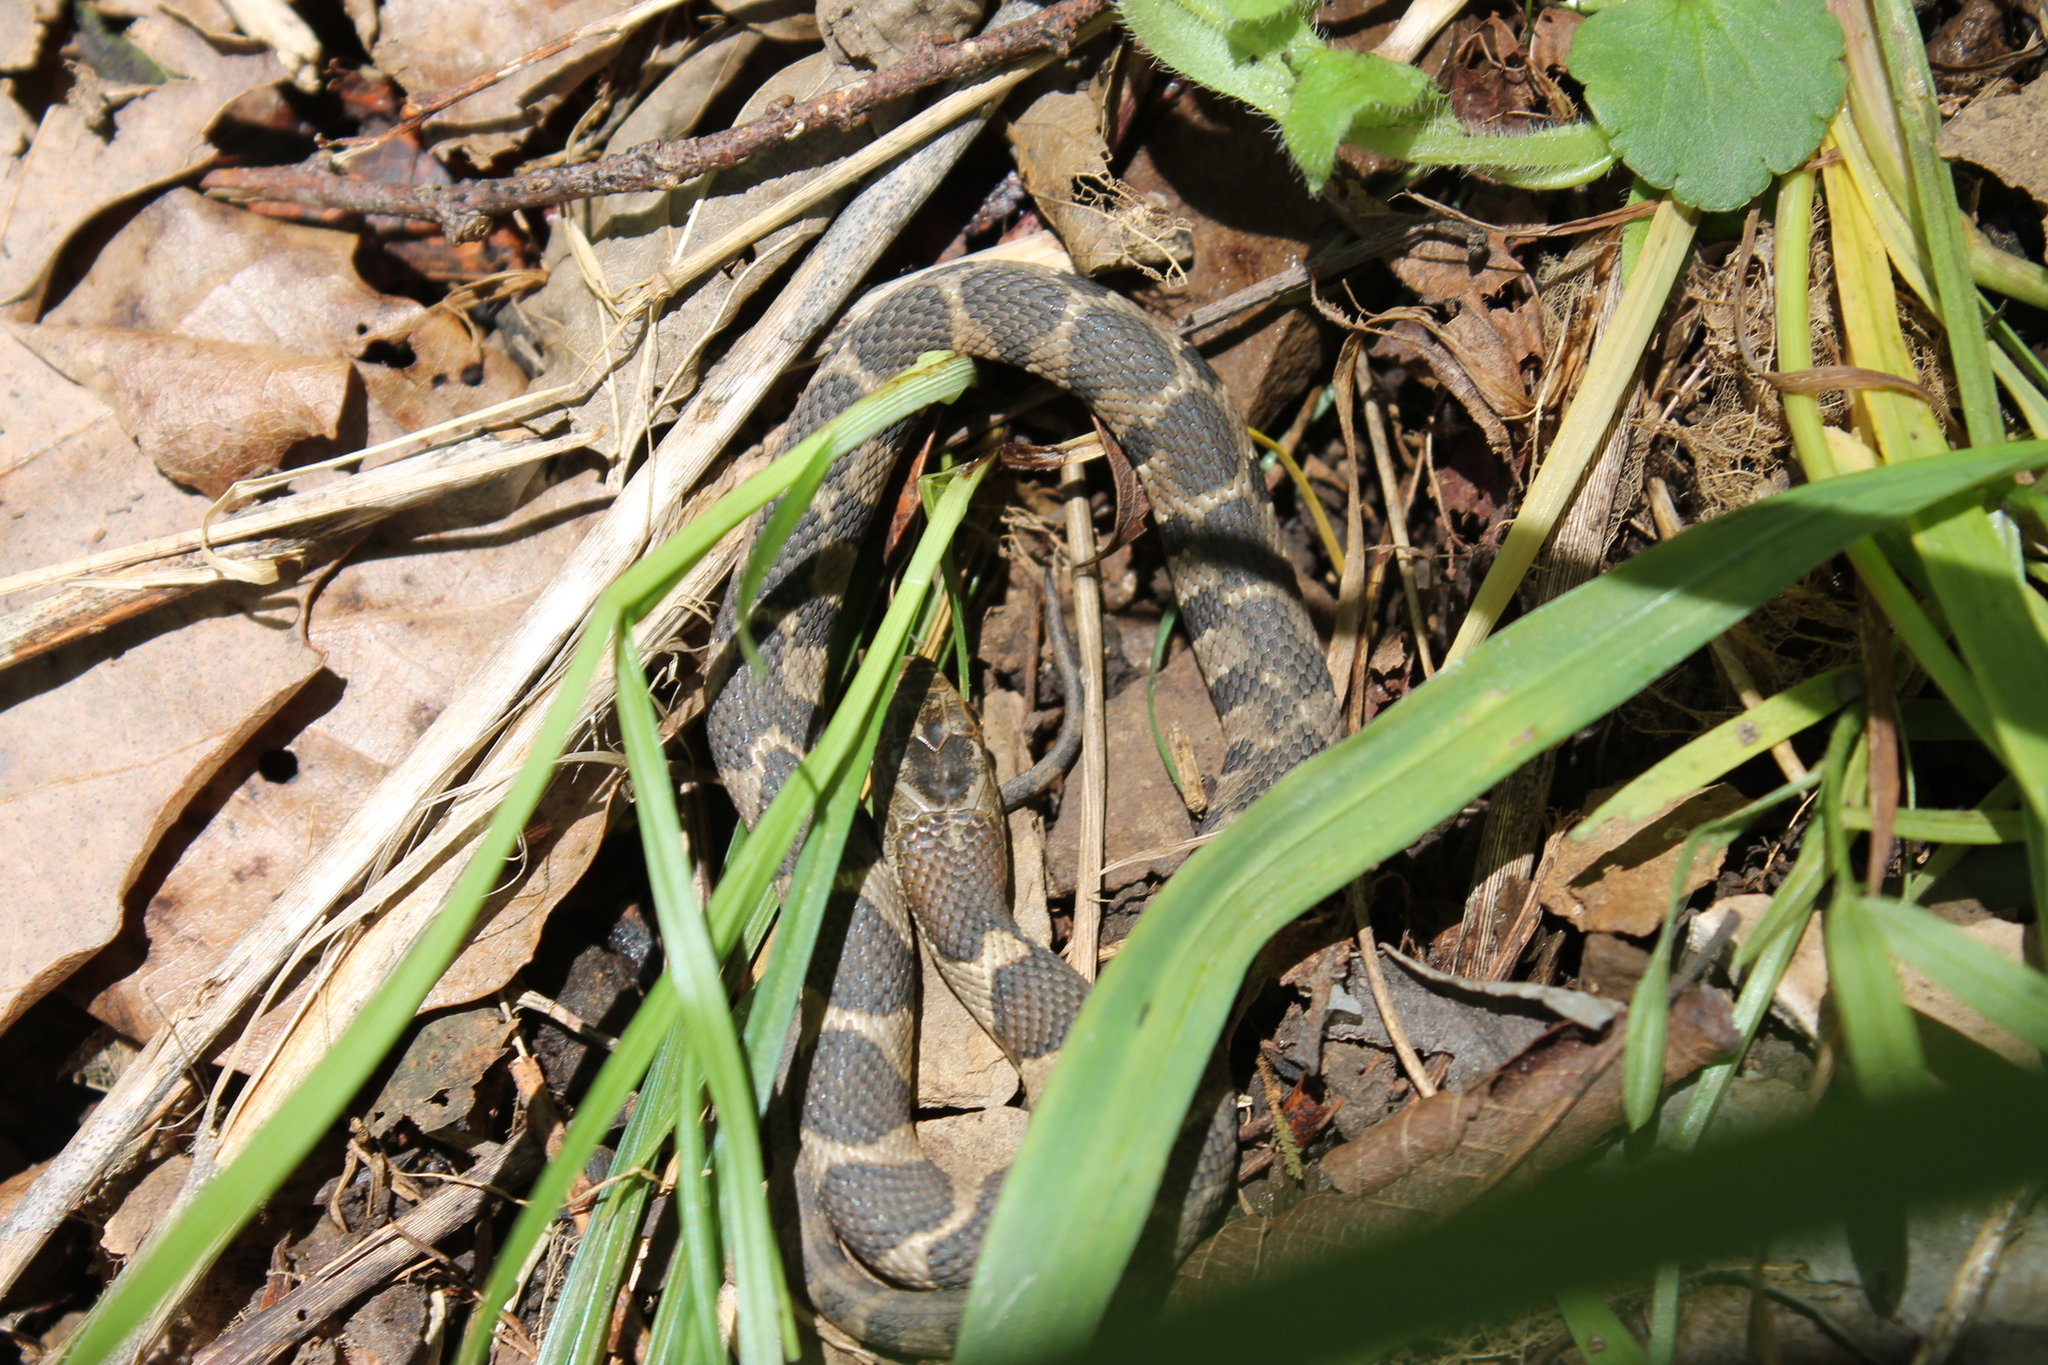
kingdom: Animalia
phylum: Chordata
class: Squamata
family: Colubridae
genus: Nerodia
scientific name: Nerodia sipedon
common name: Northern water snake
